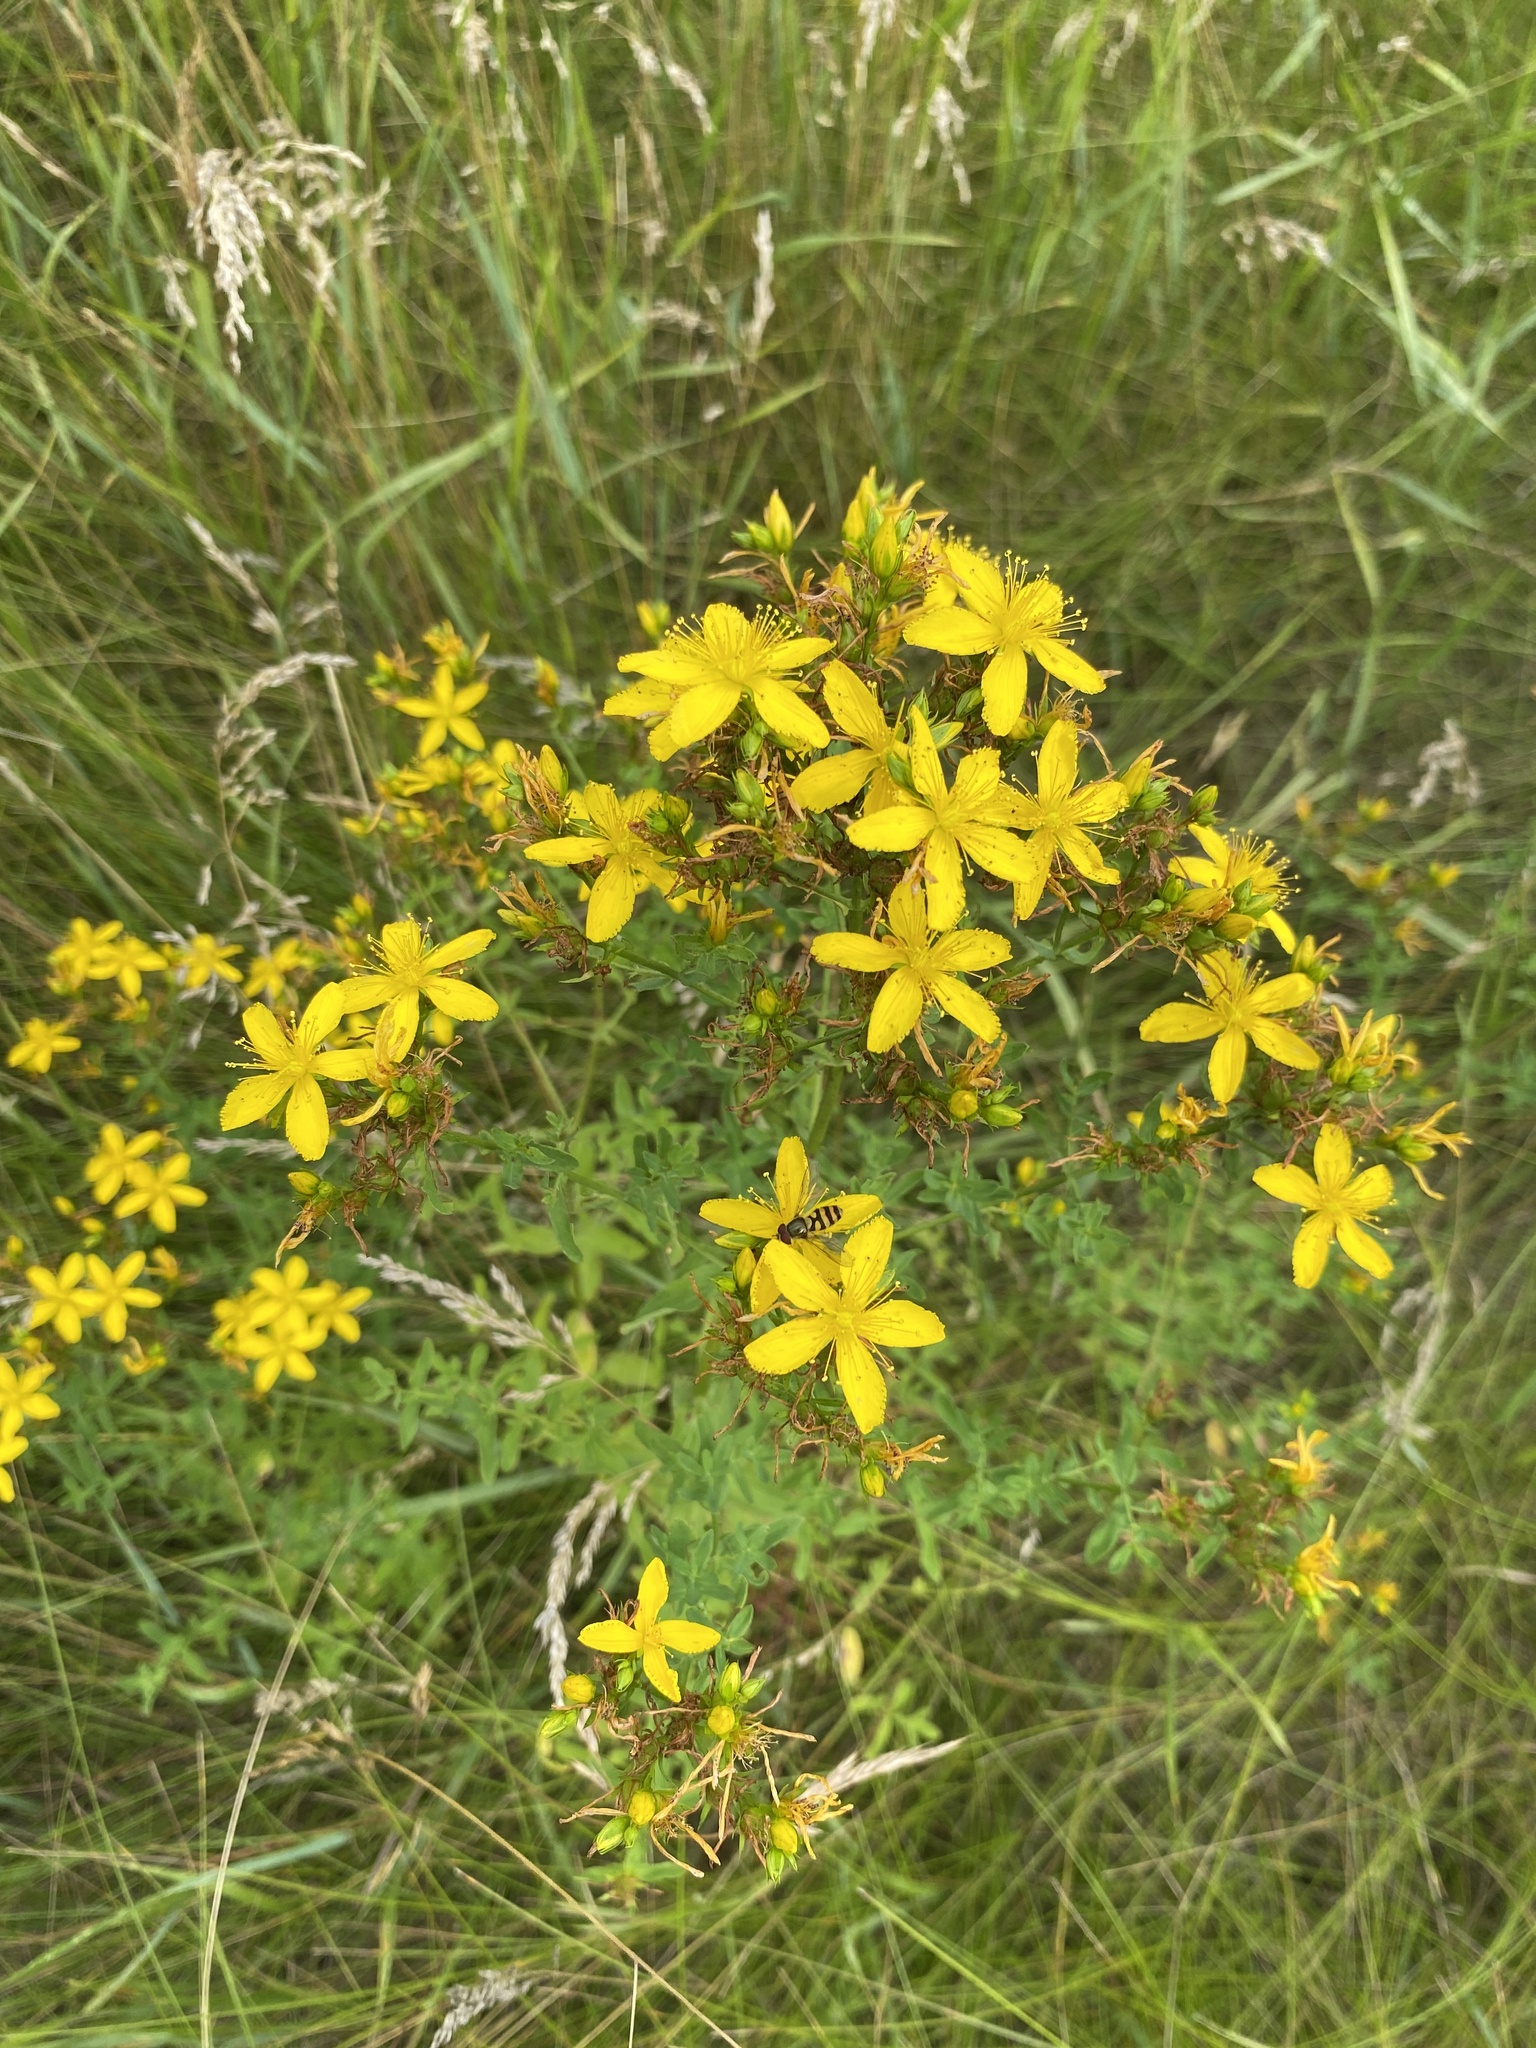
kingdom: Plantae
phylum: Tracheophyta
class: Magnoliopsida
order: Malpighiales
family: Hypericaceae
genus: Hypericum
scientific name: Hypericum perforatum
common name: Common st. johnswort
